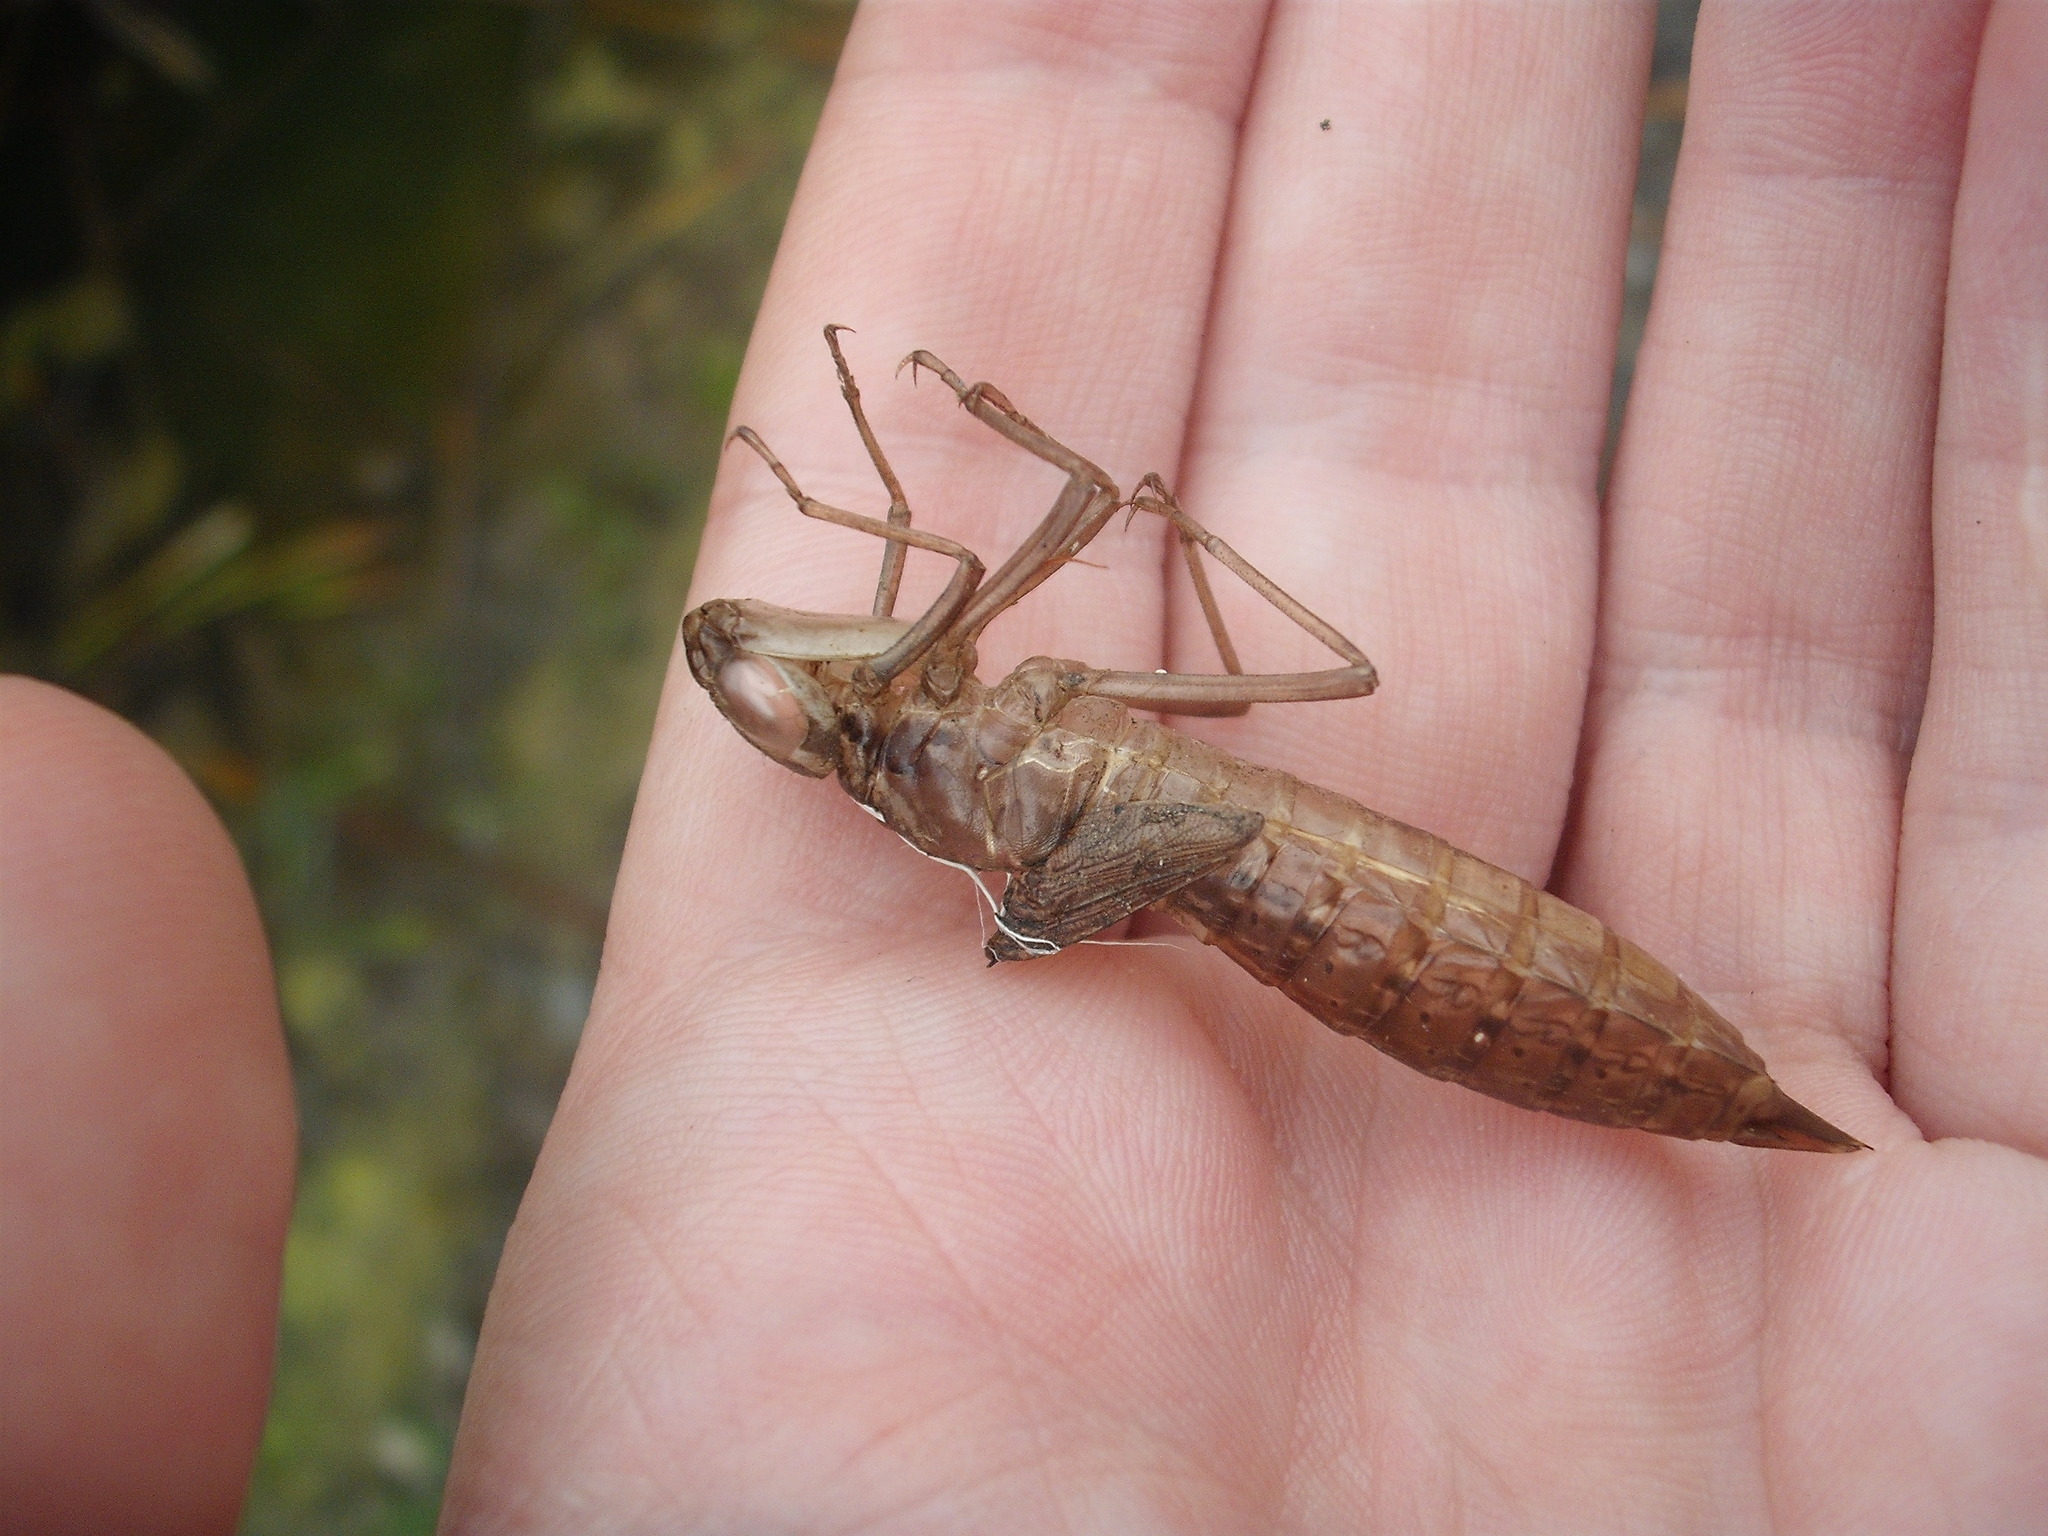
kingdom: Animalia
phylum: Arthropoda
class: Insecta
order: Odonata
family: Aeshnidae
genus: Anax
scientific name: Anax papuensis
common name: Australian emperor
